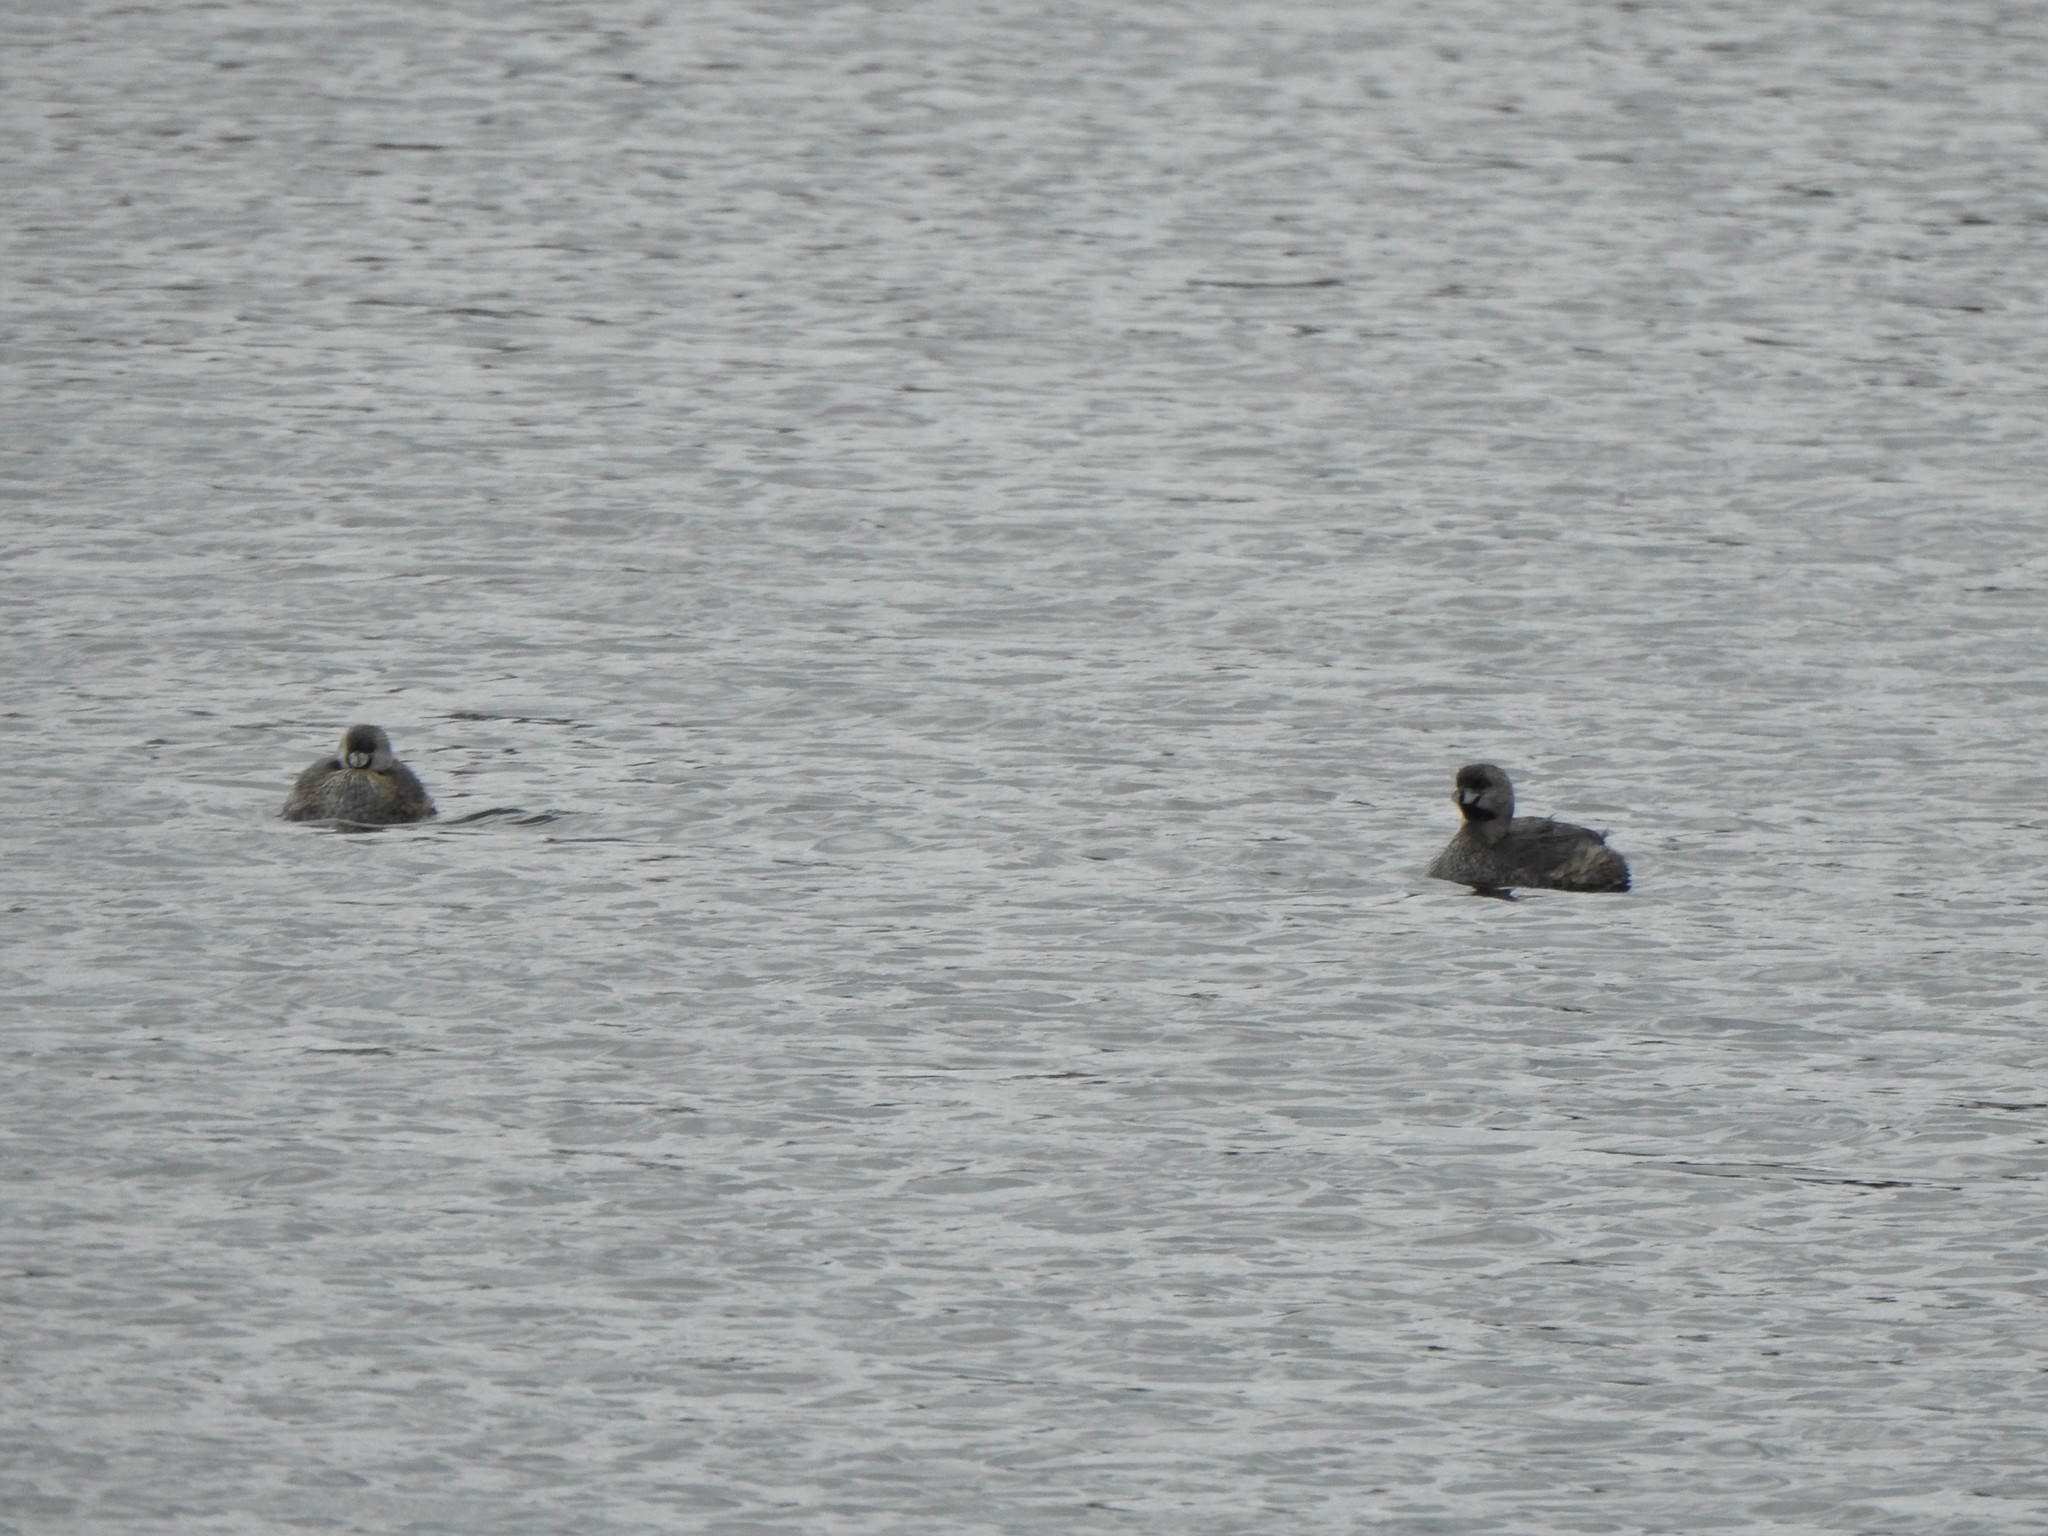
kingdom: Animalia
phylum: Chordata
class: Aves
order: Podicipediformes
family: Podicipedidae
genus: Podilymbus
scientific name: Podilymbus podiceps
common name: Pied-billed grebe
